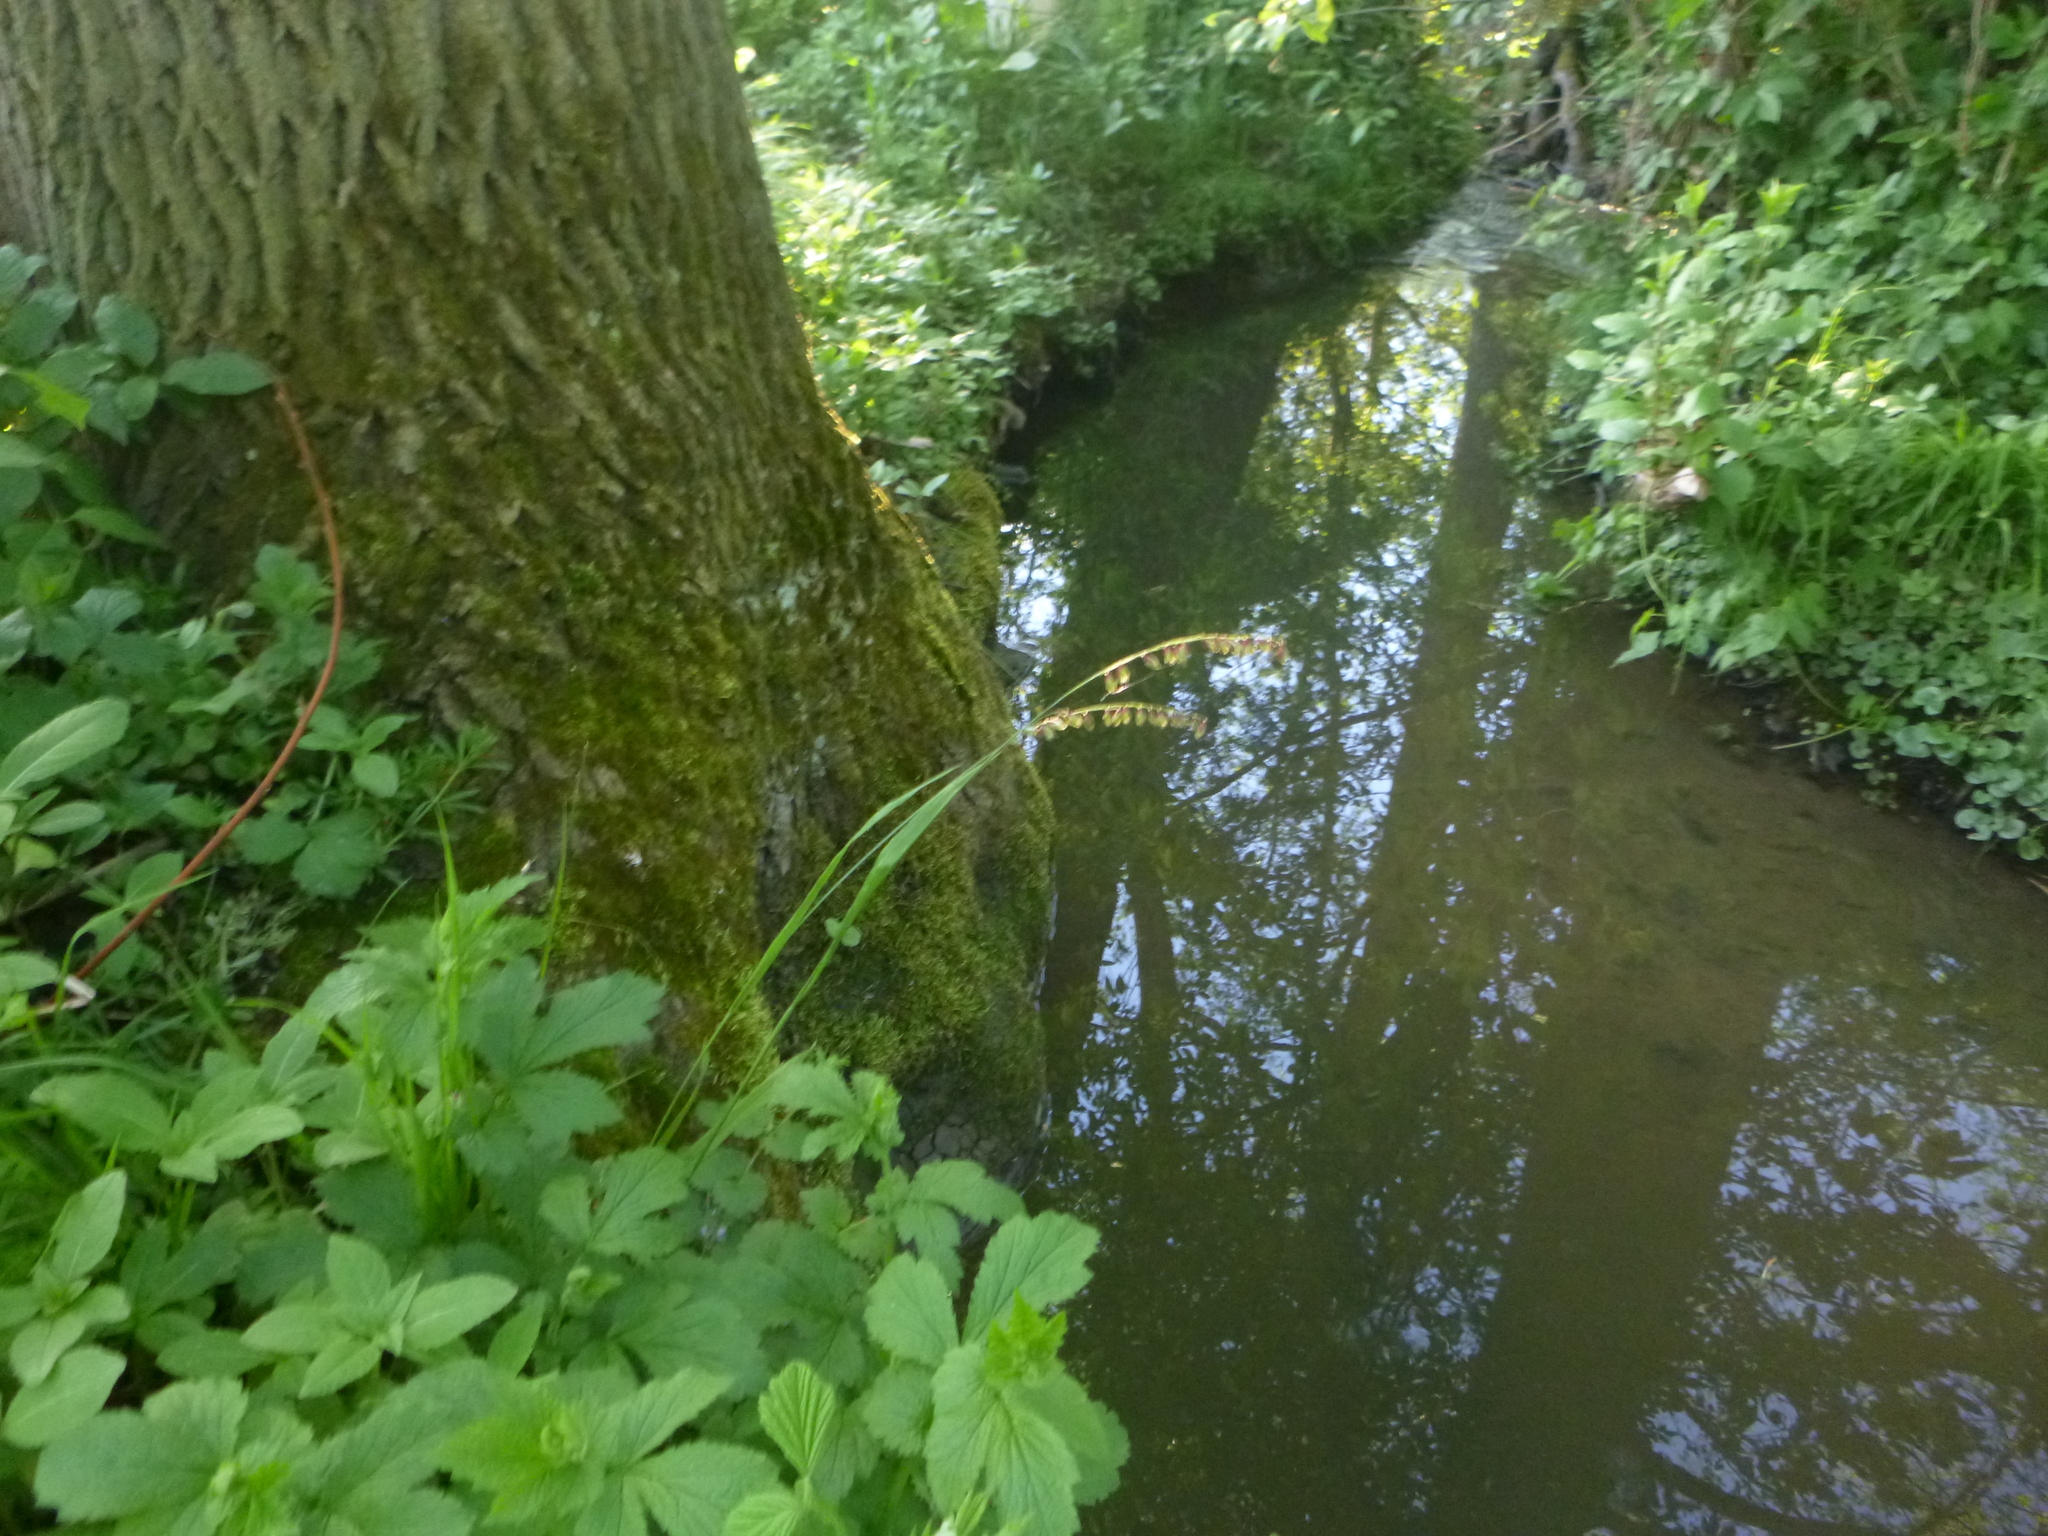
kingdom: Plantae
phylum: Tracheophyta
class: Liliopsida
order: Poales
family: Poaceae
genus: Melica
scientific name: Melica nutans
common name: Mountain melick
